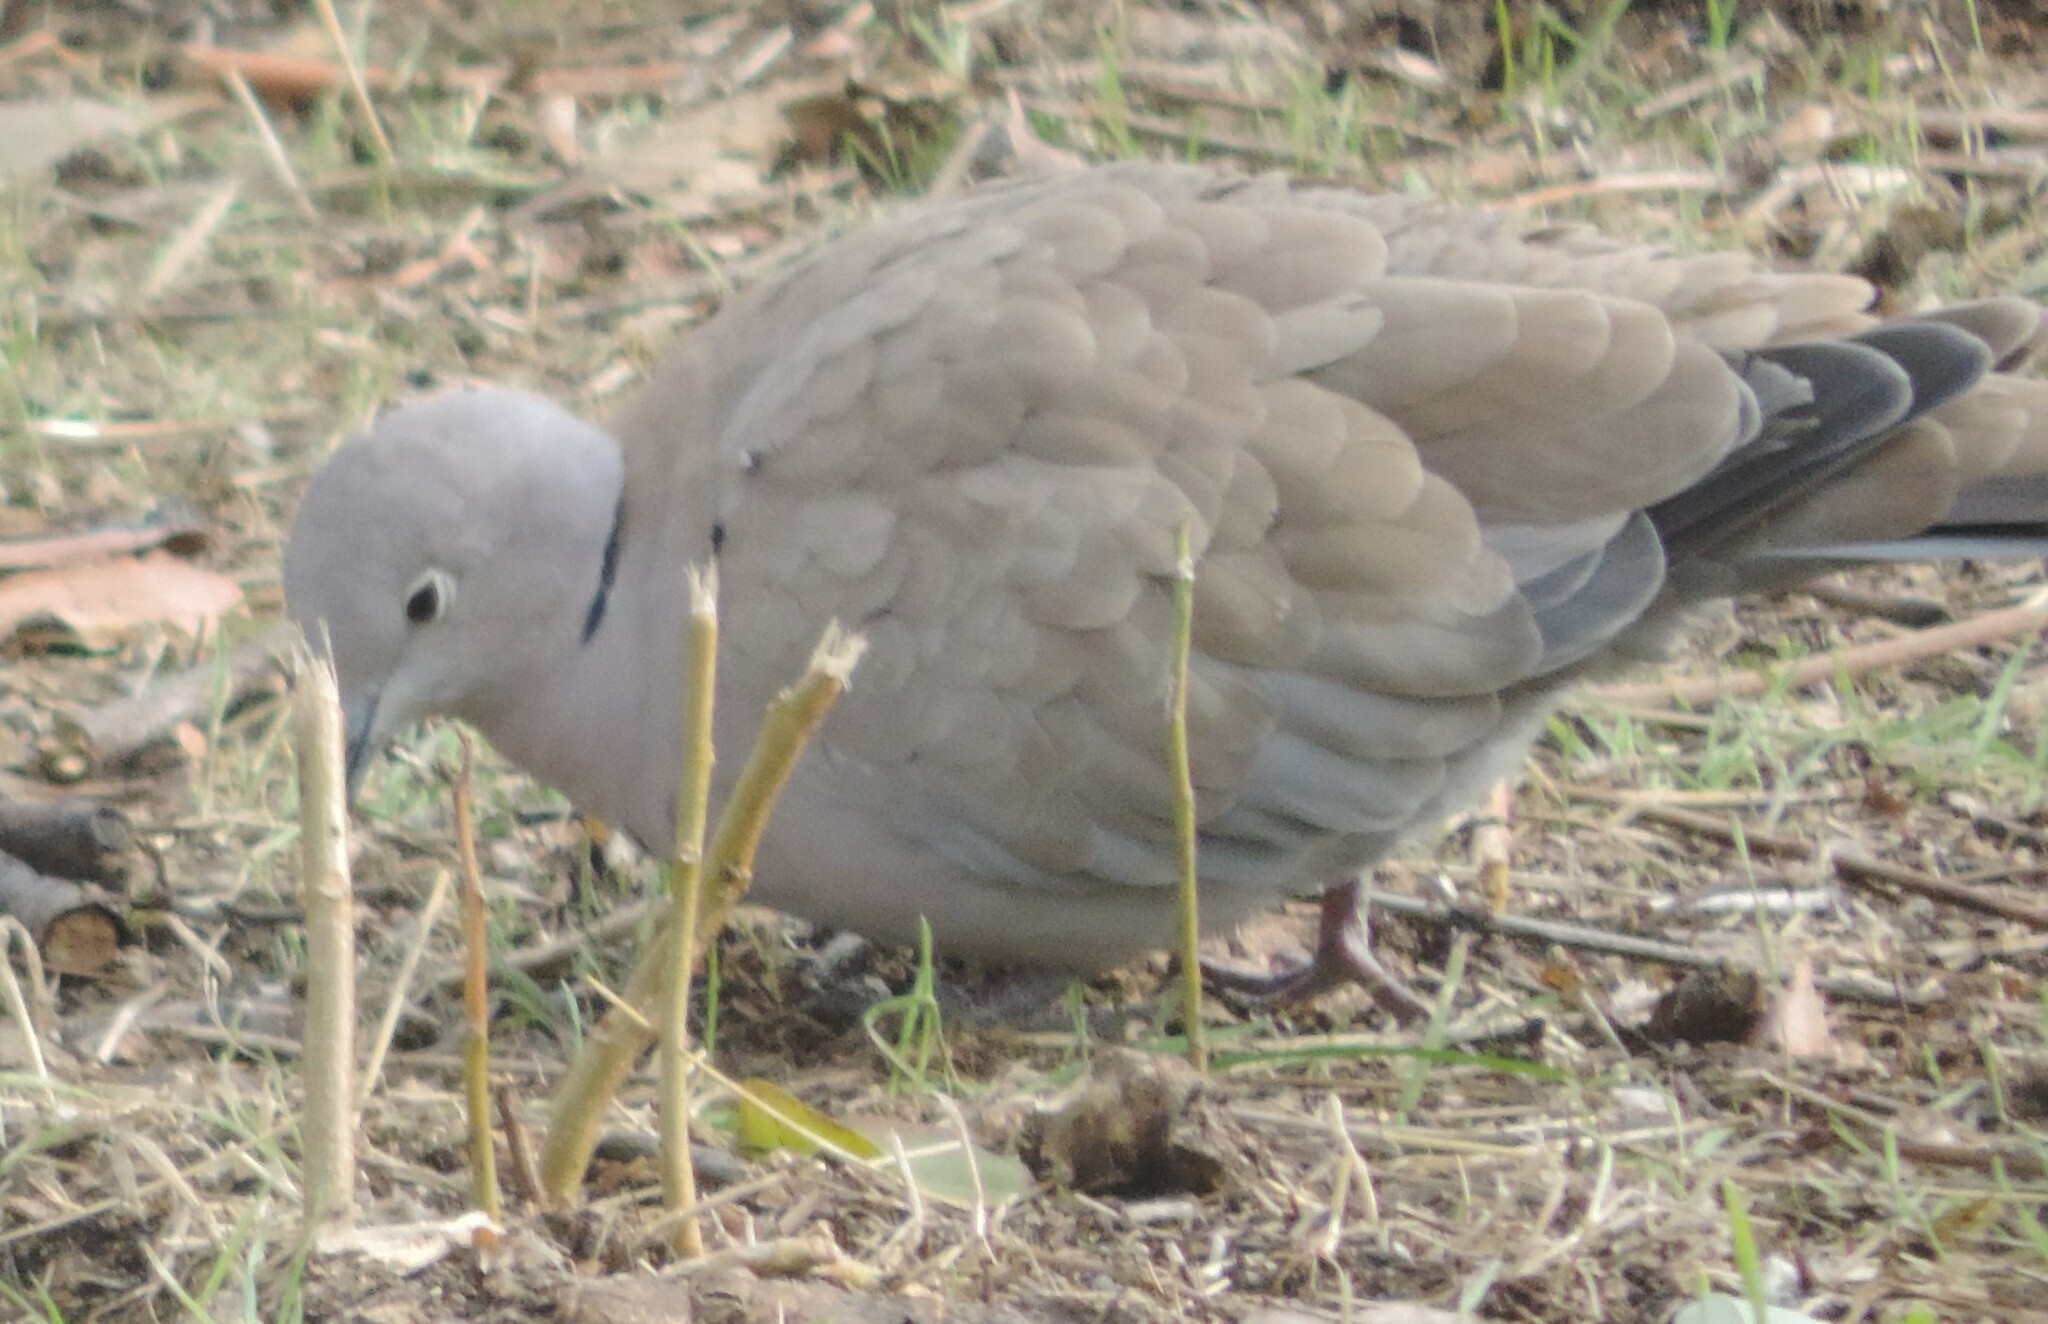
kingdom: Animalia
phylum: Chordata
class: Aves
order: Columbiformes
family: Columbidae
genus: Streptopelia
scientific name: Streptopelia decaocto
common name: Eurasian collared dove
